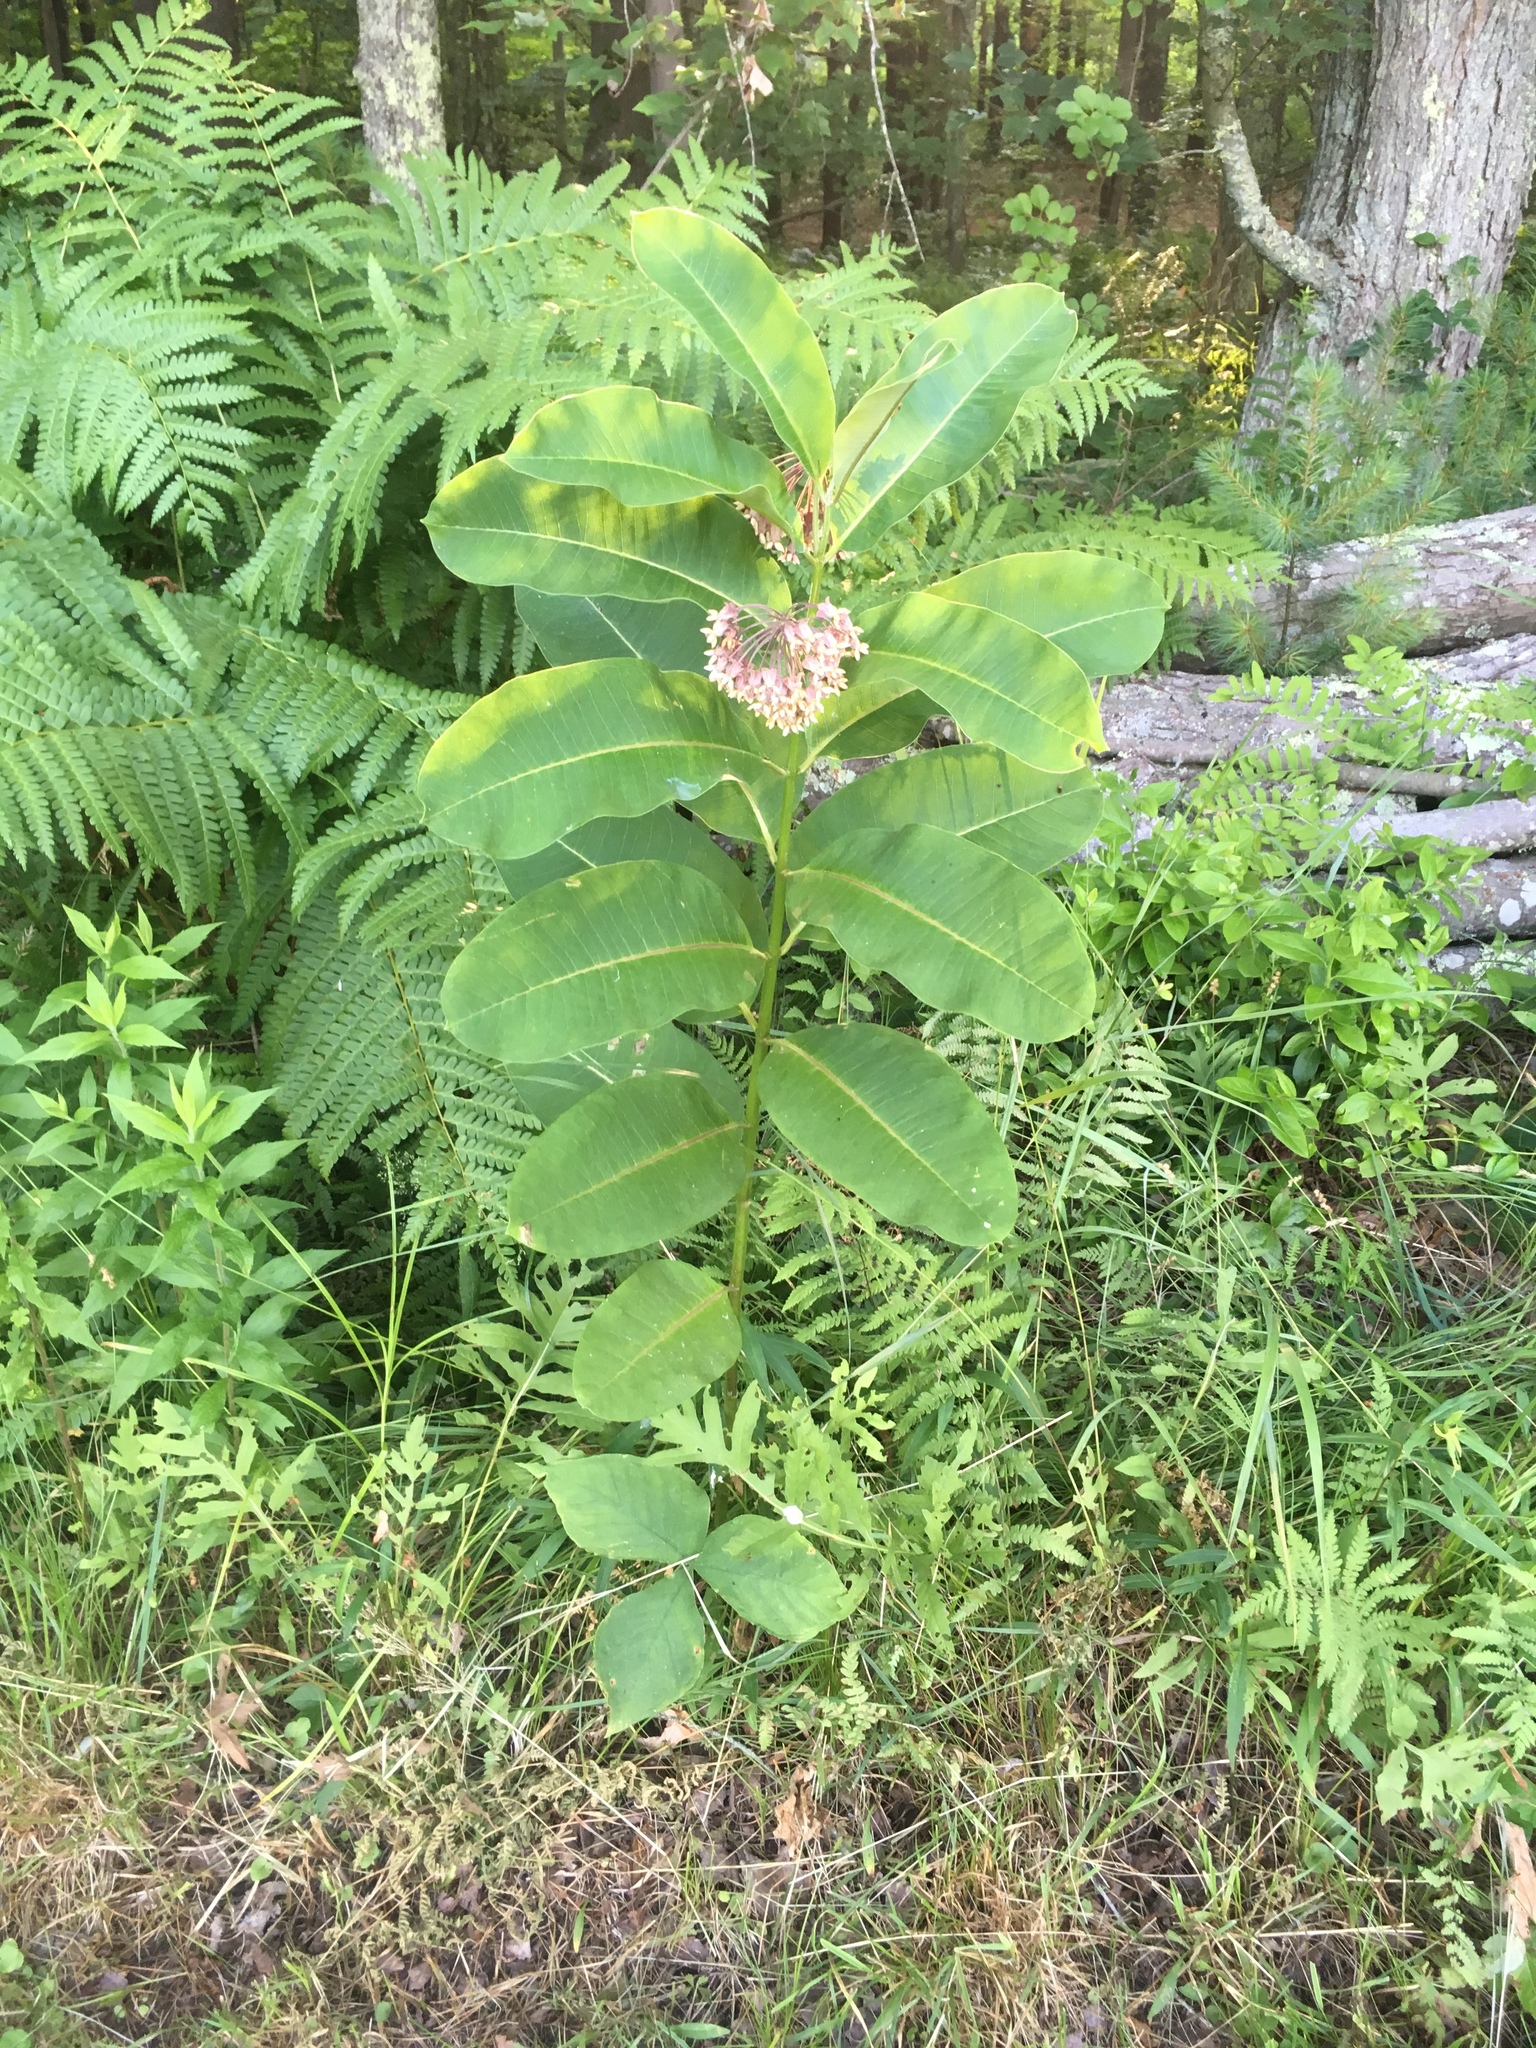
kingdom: Plantae
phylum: Tracheophyta
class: Magnoliopsida
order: Gentianales
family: Apocynaceae
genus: Asclepias
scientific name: Asclepias syriaca
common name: Common milkweed
